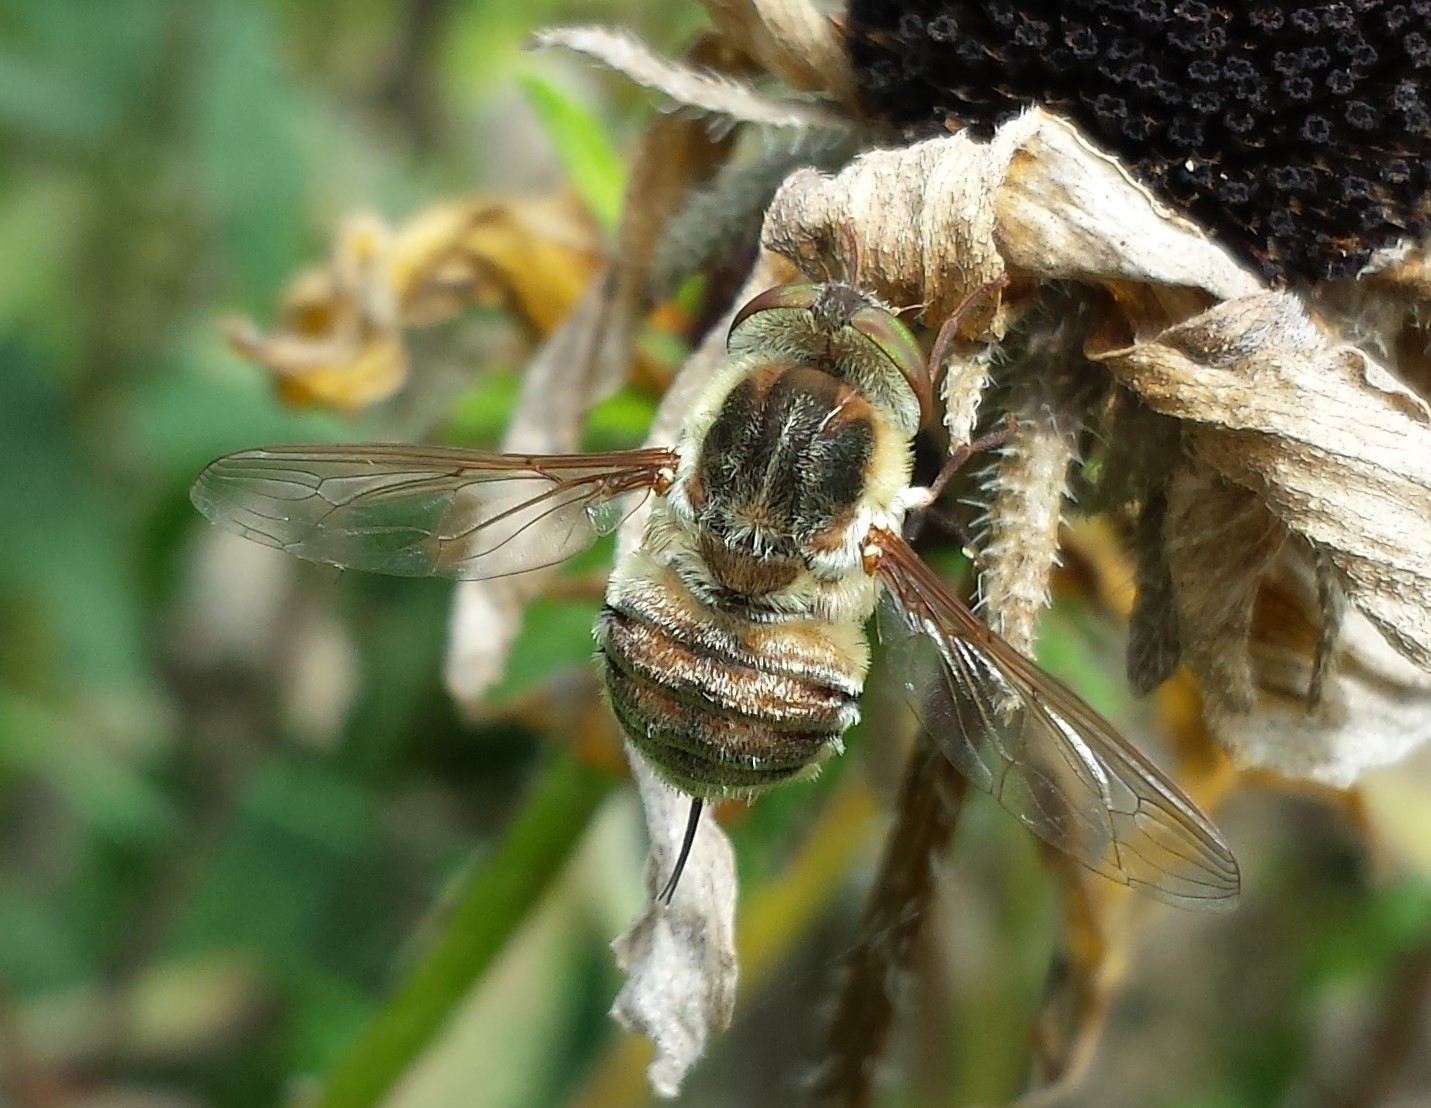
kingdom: Animalia
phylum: Arthropoda
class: Insecta
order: Diptera
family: Nemestrinidae
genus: Neorhynchocephalus
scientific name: Neorhynchocephalus volaticus
